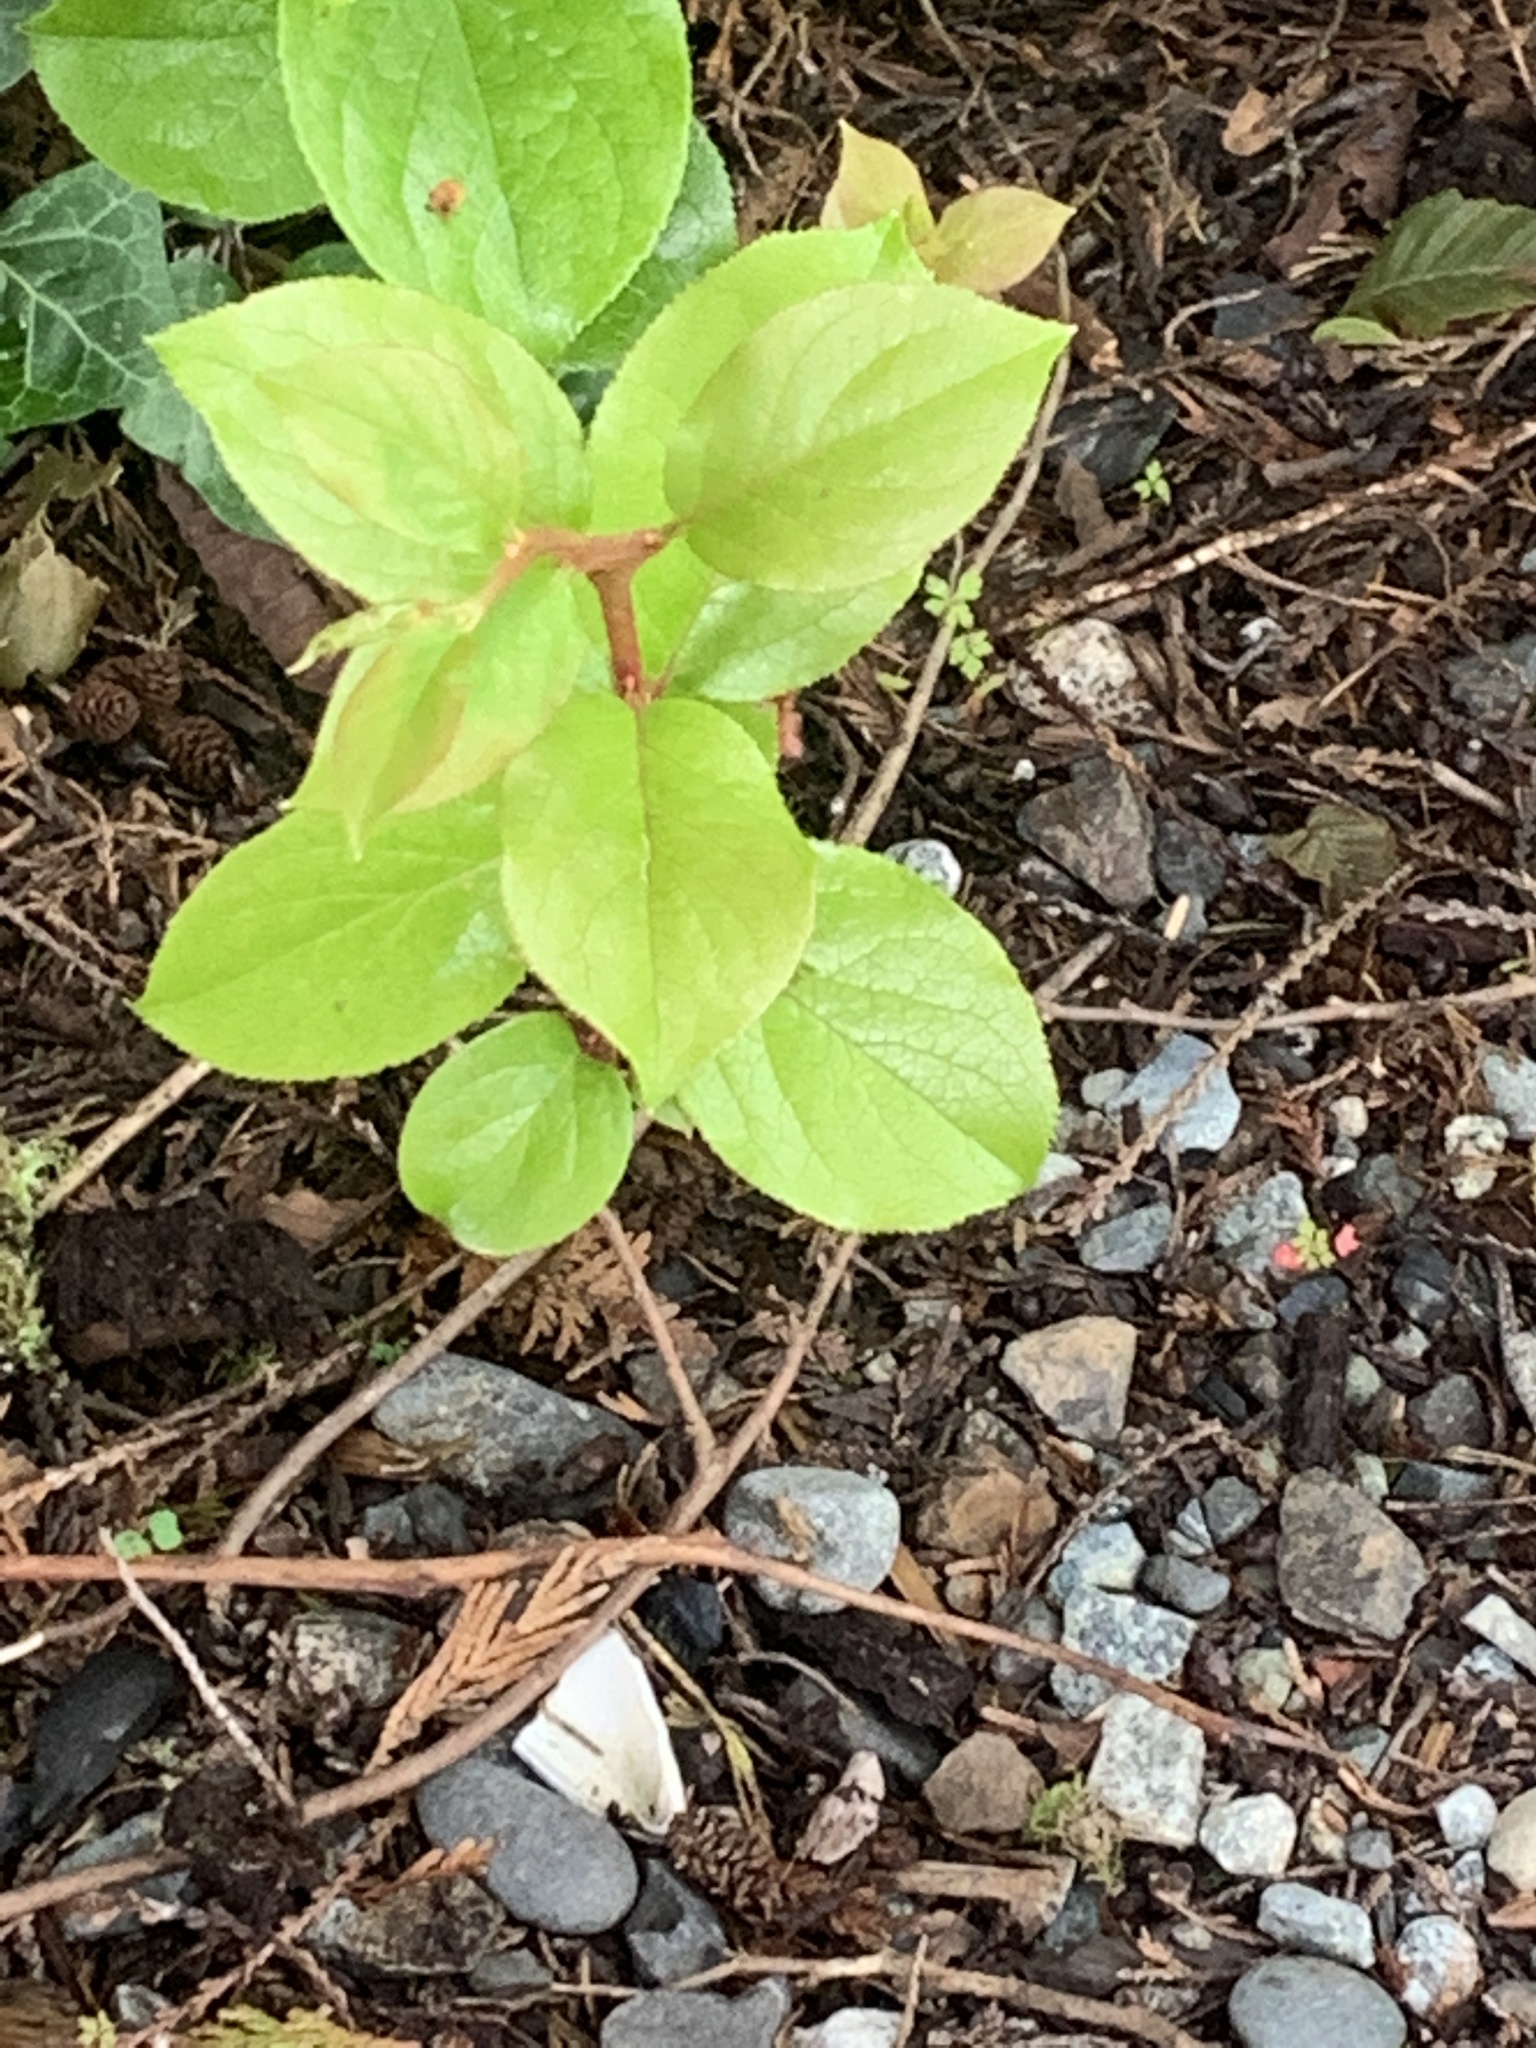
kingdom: Plantae
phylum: Tracheophyta
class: Magnoliopsida
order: Ericales
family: Ericaceae
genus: Gaultheria
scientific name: Gaultheria shallon
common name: Shallon
